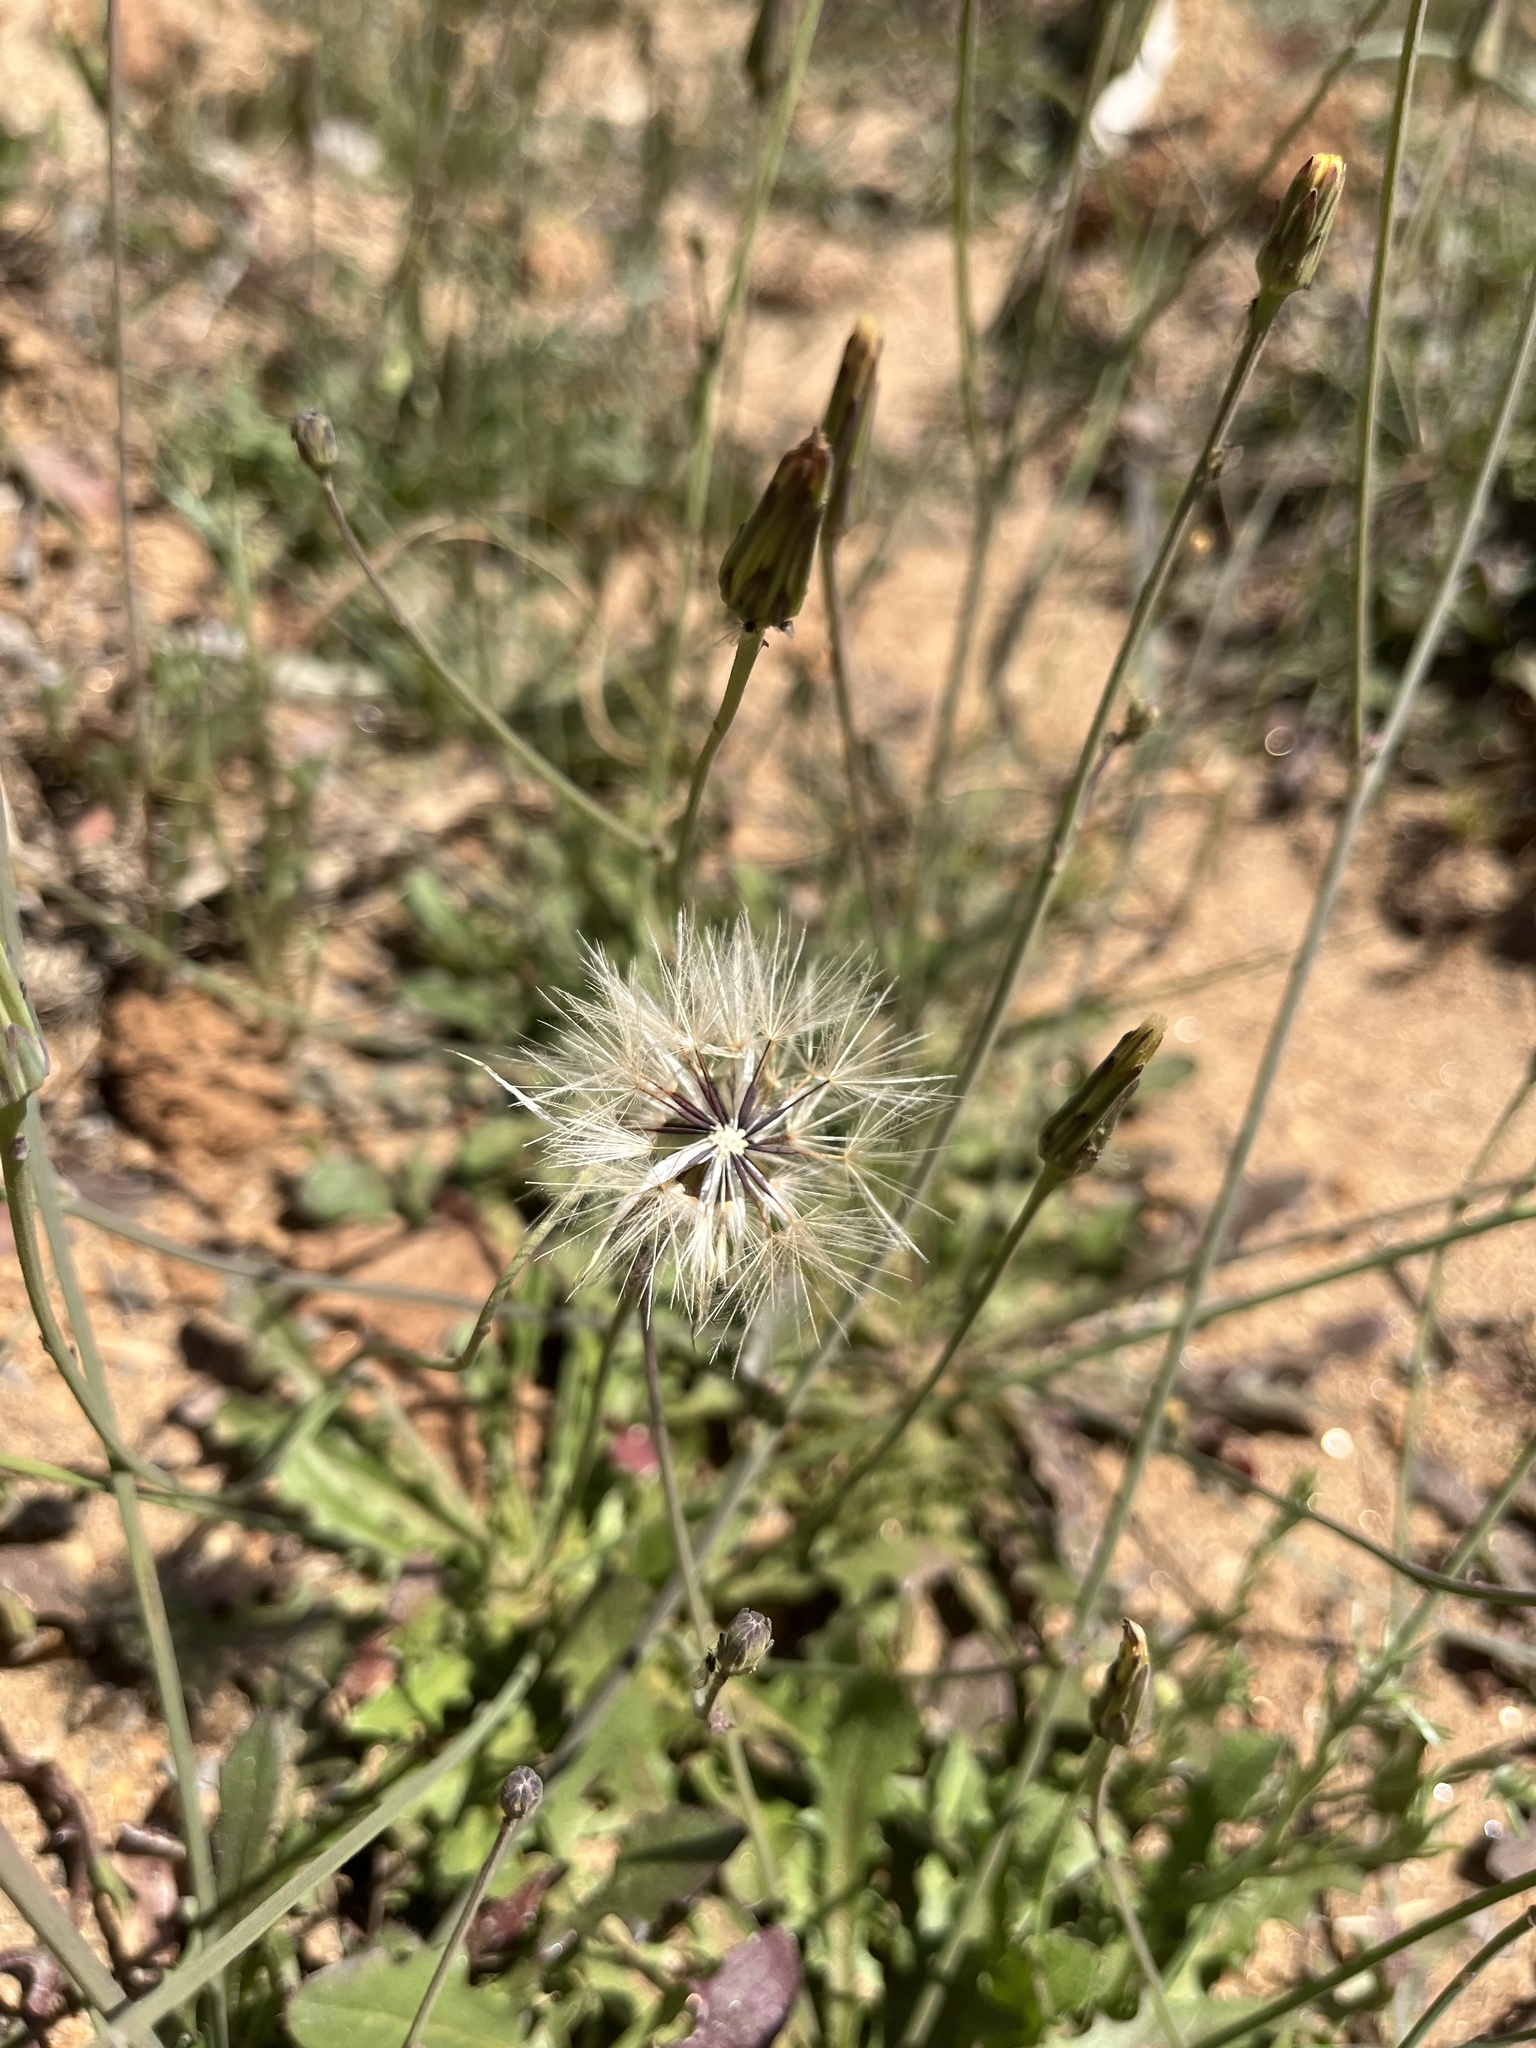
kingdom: Plantae
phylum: Tracheophyta
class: Magnoliopsida
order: Asterales
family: Asteraceae
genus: Hypochaeris
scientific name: Hypochaeris glabra
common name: Smooth catsear
